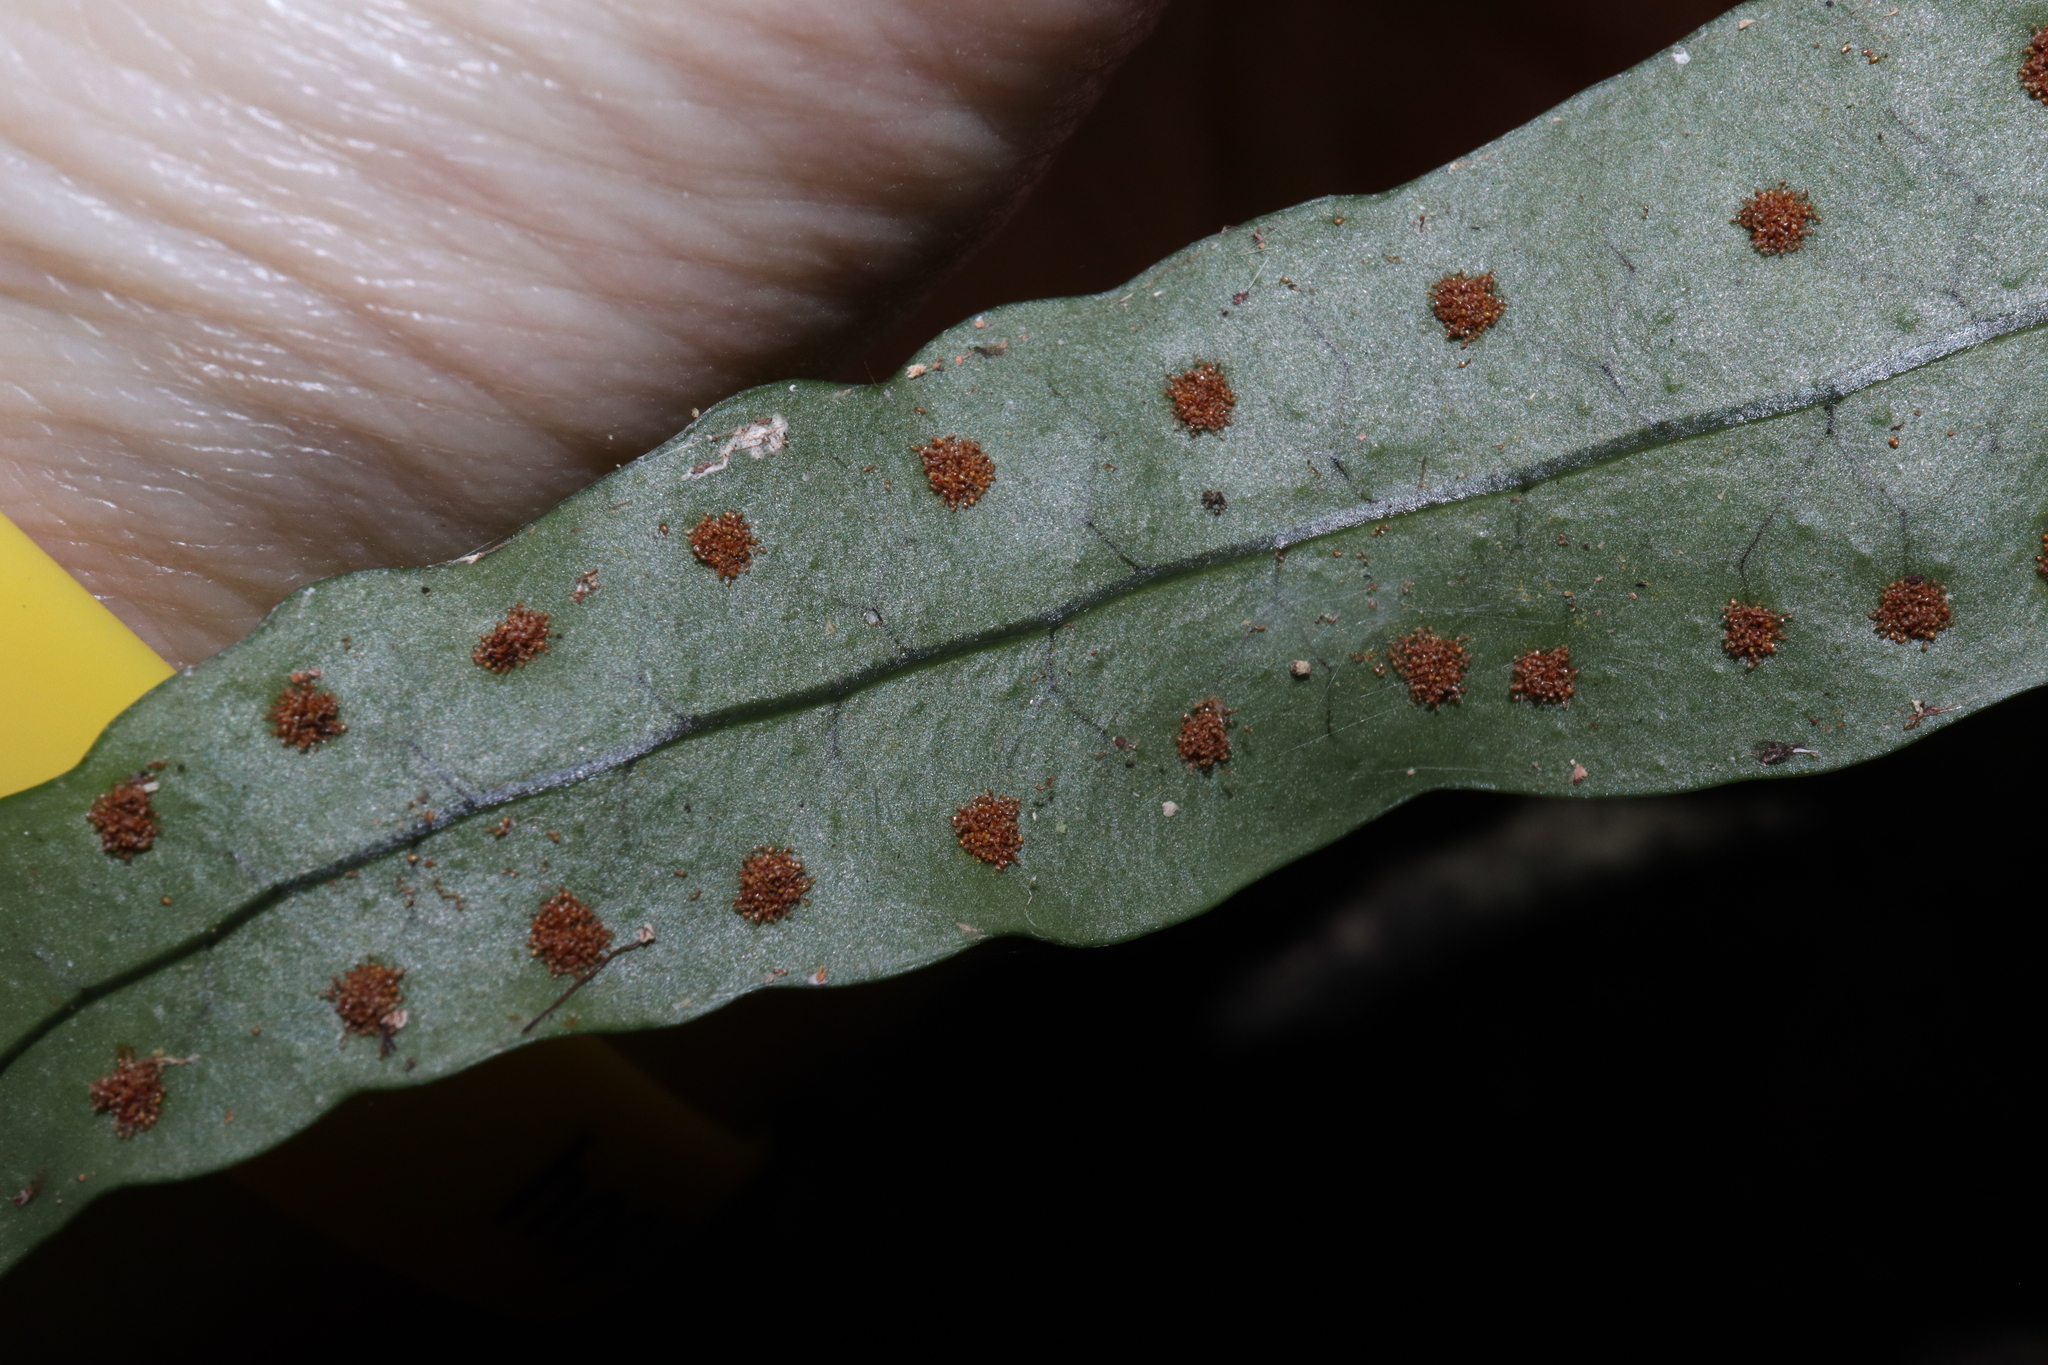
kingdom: Plantae
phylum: Tracheophyta
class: Polypodiopsida
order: Polypodiales
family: Polypodiaceae
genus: Lecanopteris
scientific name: Lecanopteris scandens
